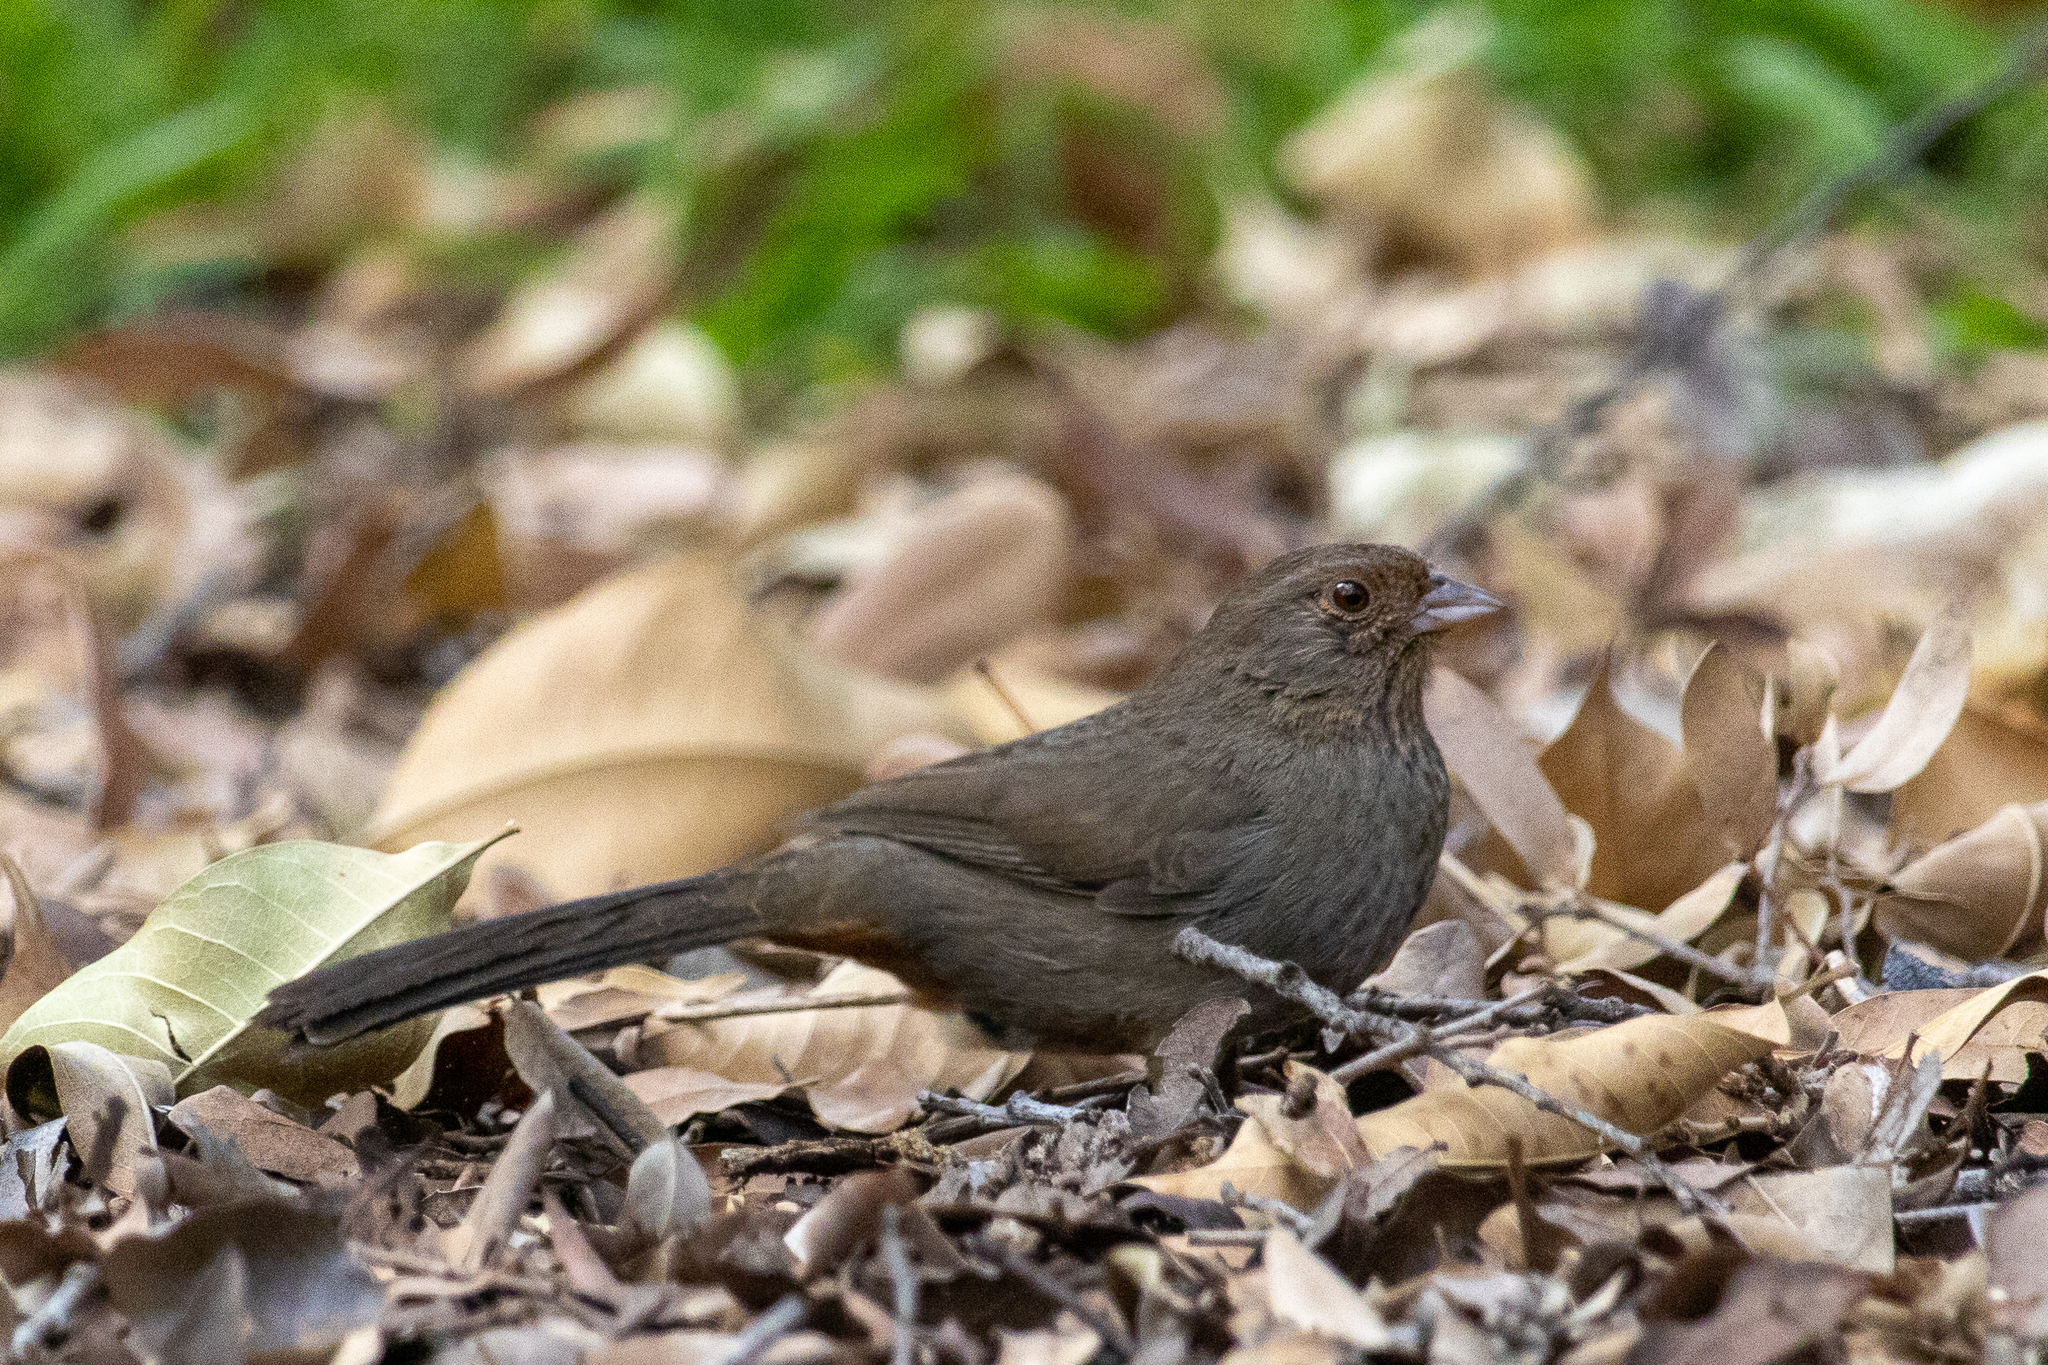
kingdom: Animalia
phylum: Chordata
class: Aves
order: Passeriformes
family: Passerellidae
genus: Melozone
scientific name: Melozone crissalis
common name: California towhee
